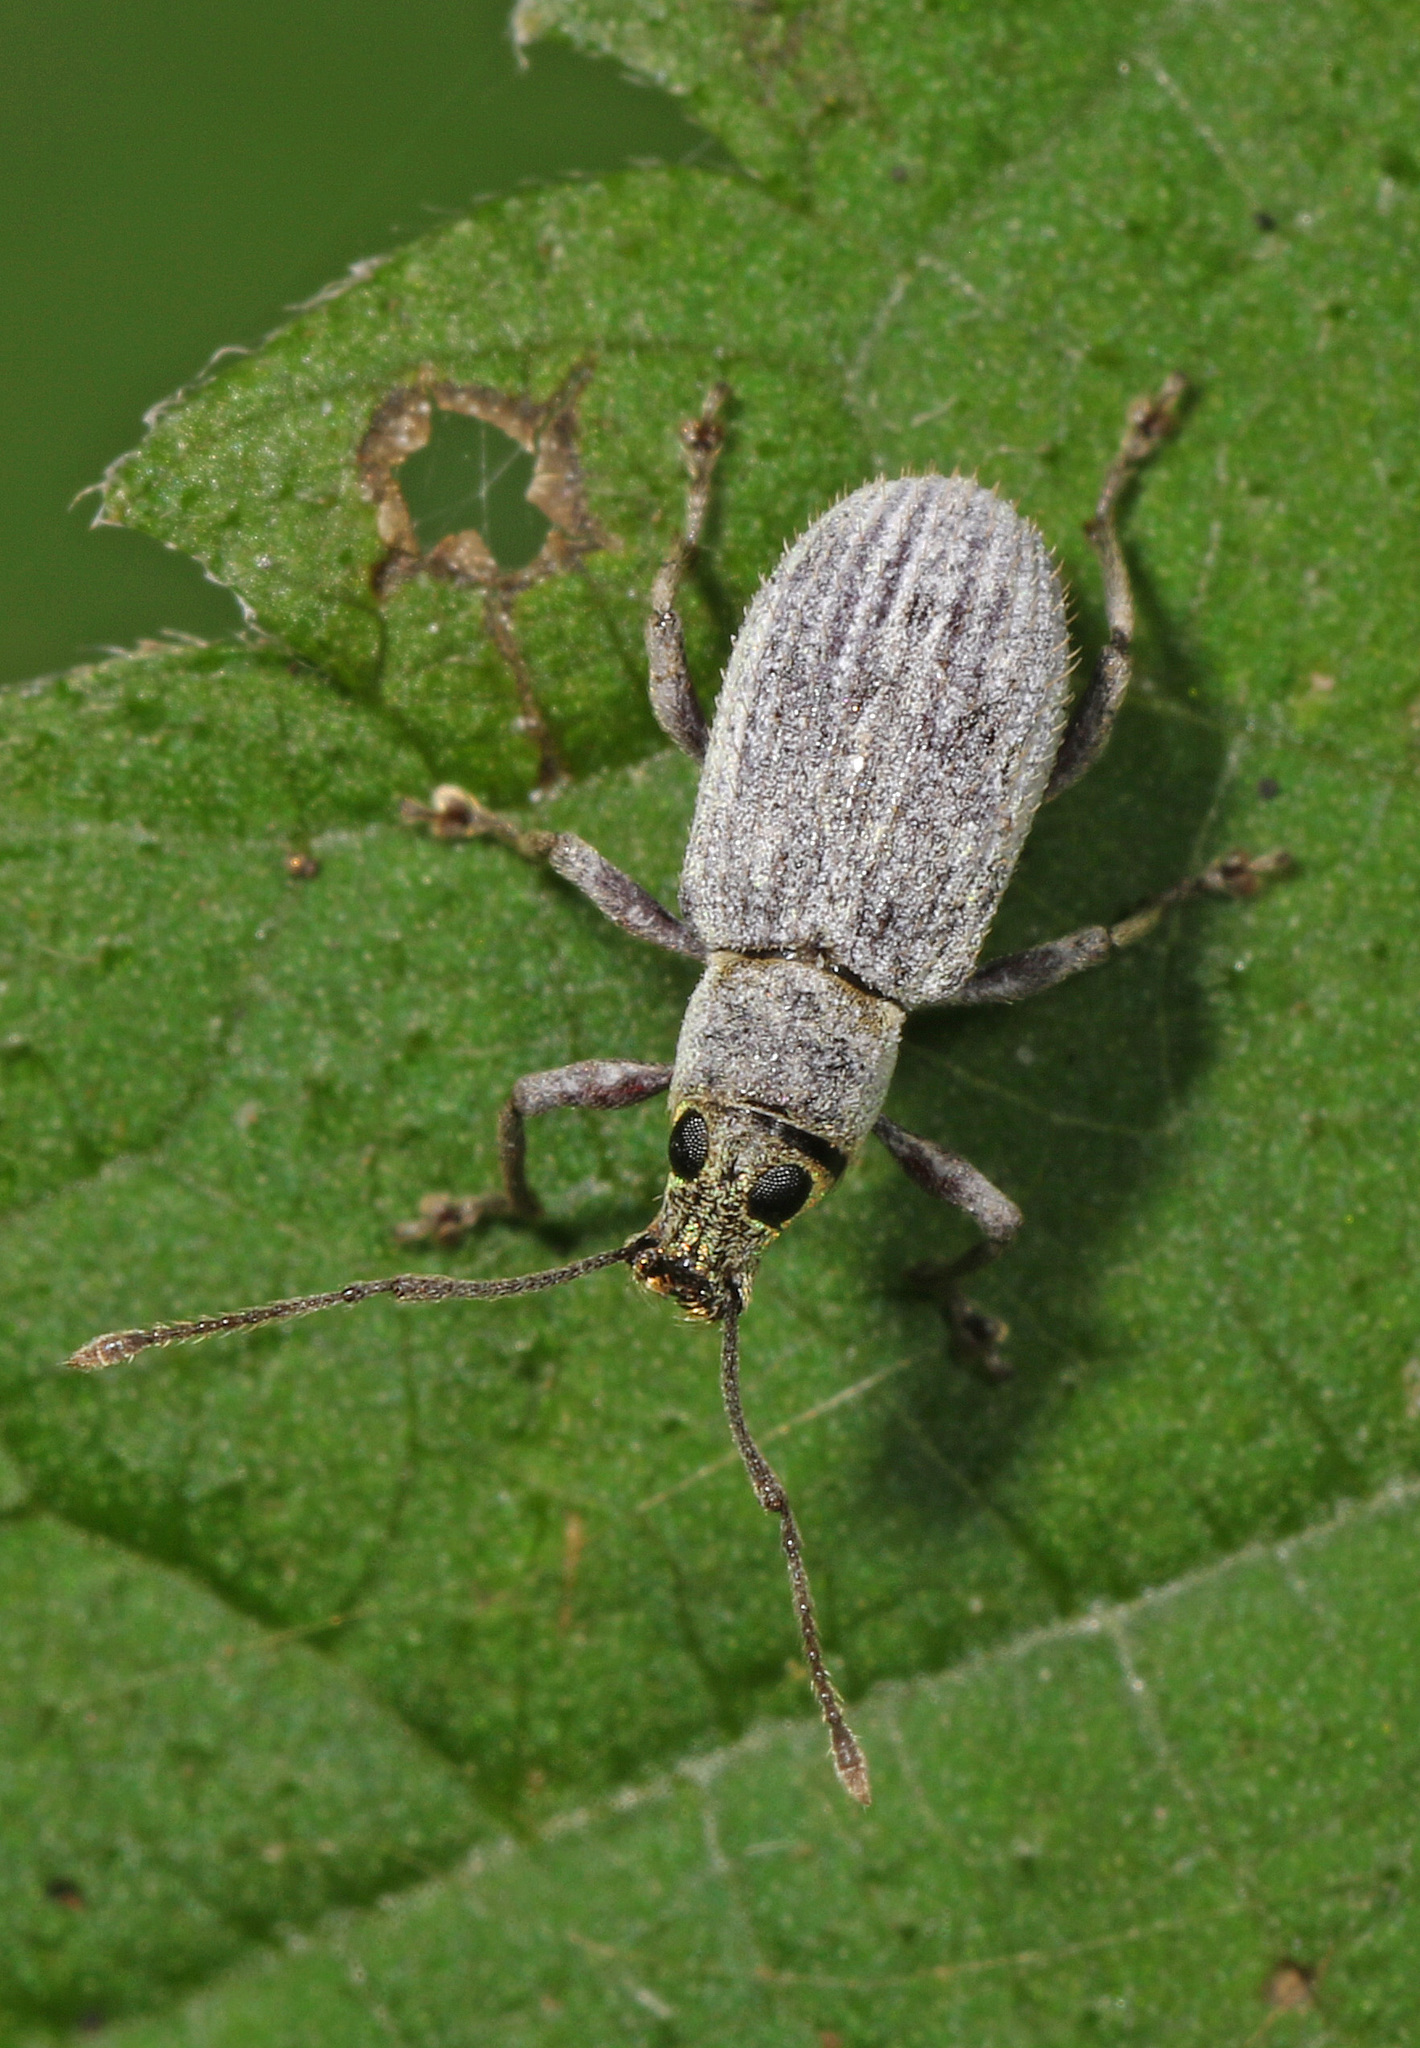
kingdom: Animalia
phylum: Arthropoda
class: Insecta
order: Coleoptera
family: Curculionidae
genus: Cyrtepistomus
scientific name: Cyrtepistomus castaneus
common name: Weevil
